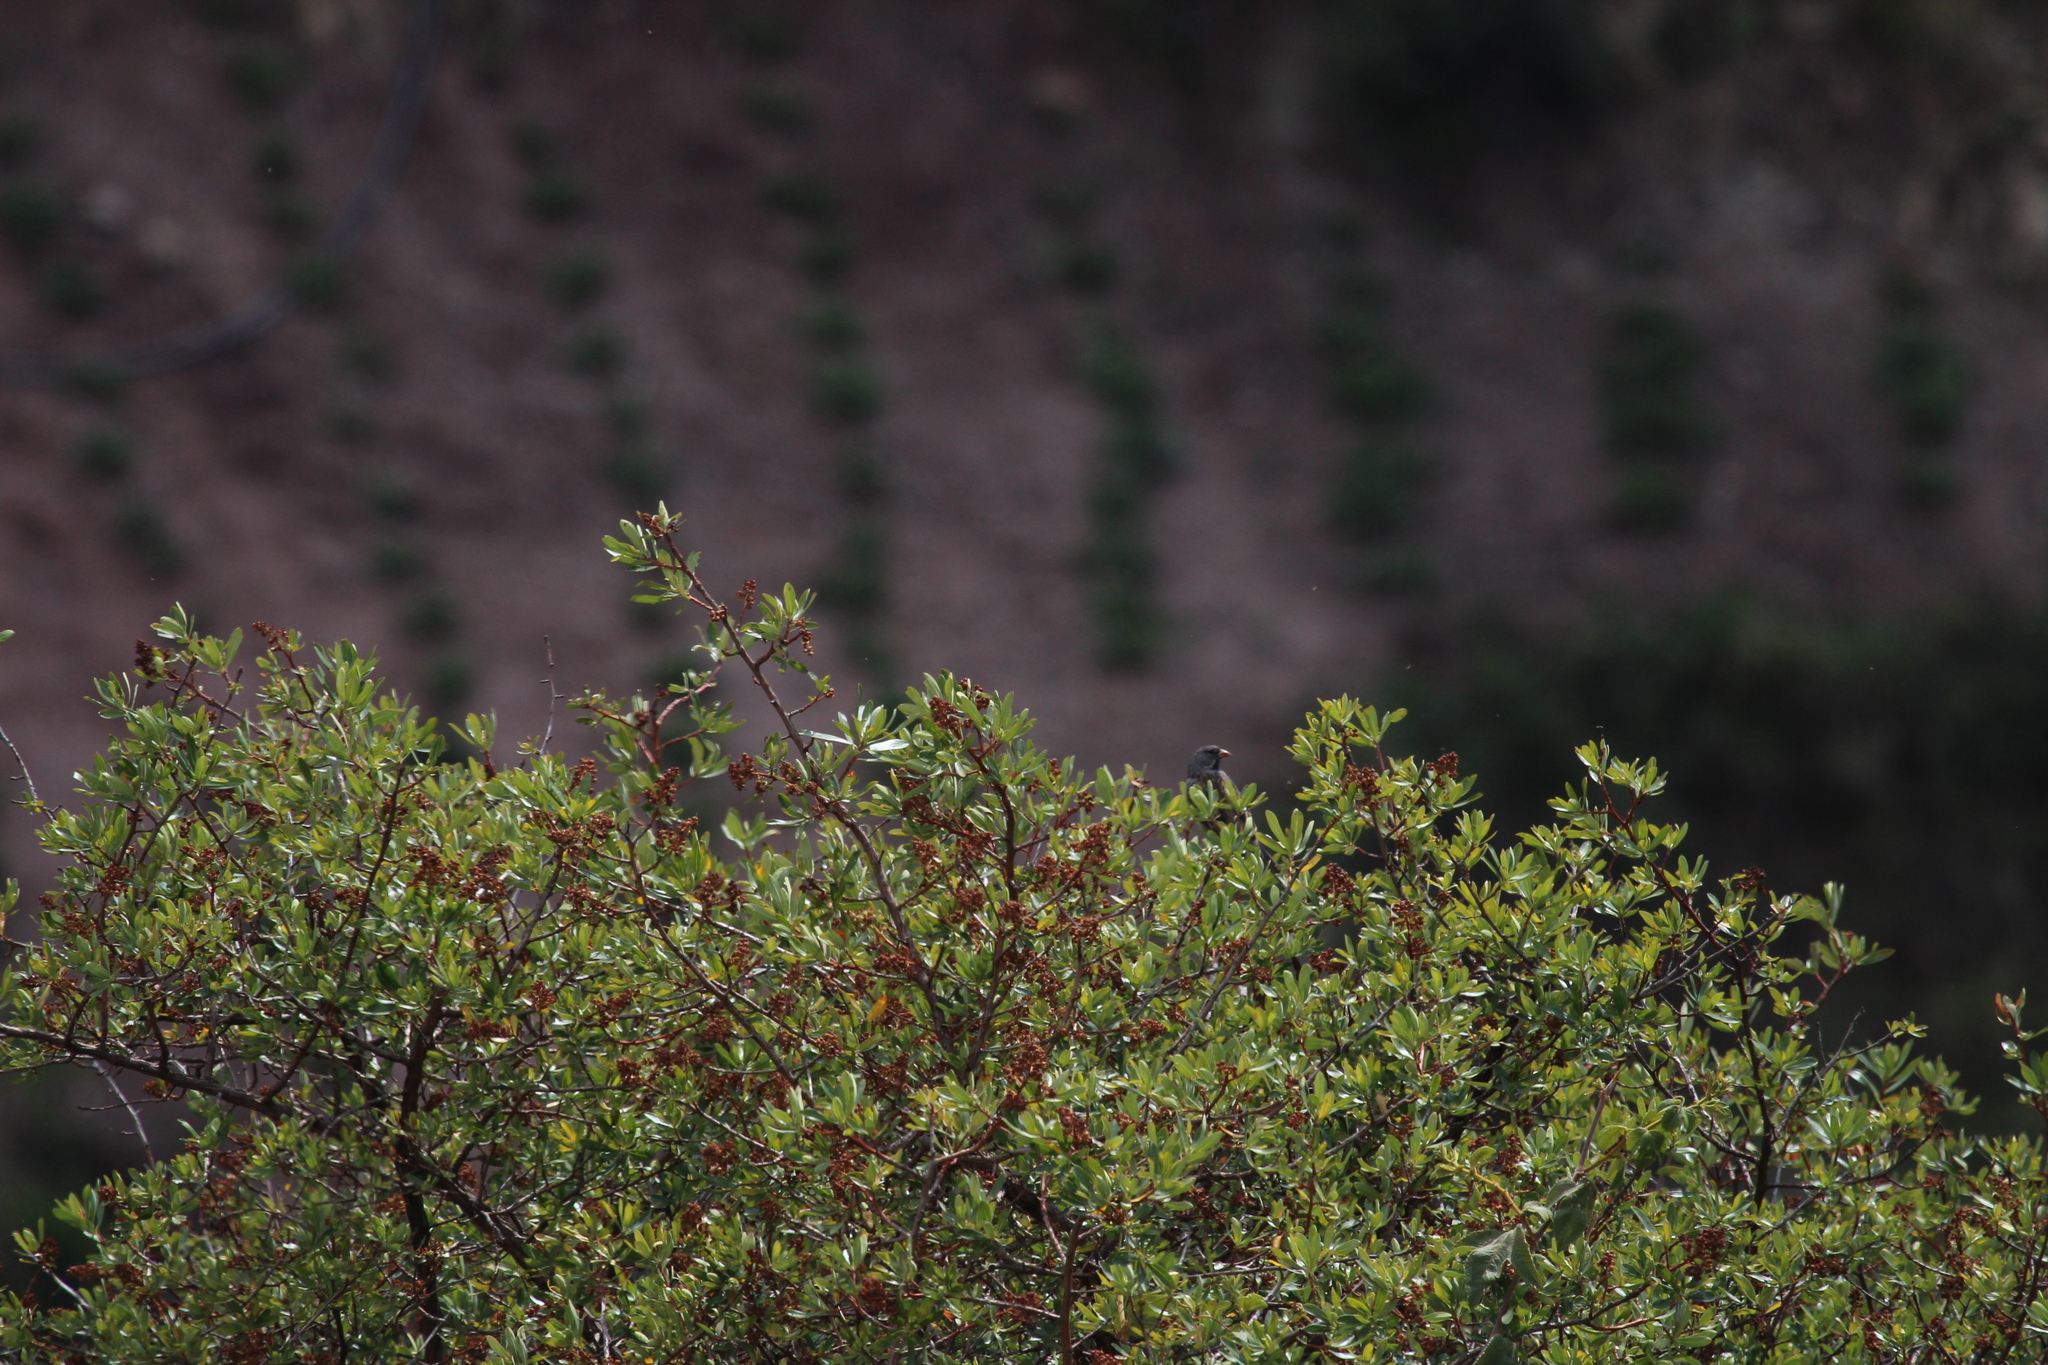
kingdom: Plantae
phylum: Tracheophyta
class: Magnoliopsida
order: Escalloniales
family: Escalloniaceae
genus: Escallonia
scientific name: Escallonia resinosa
